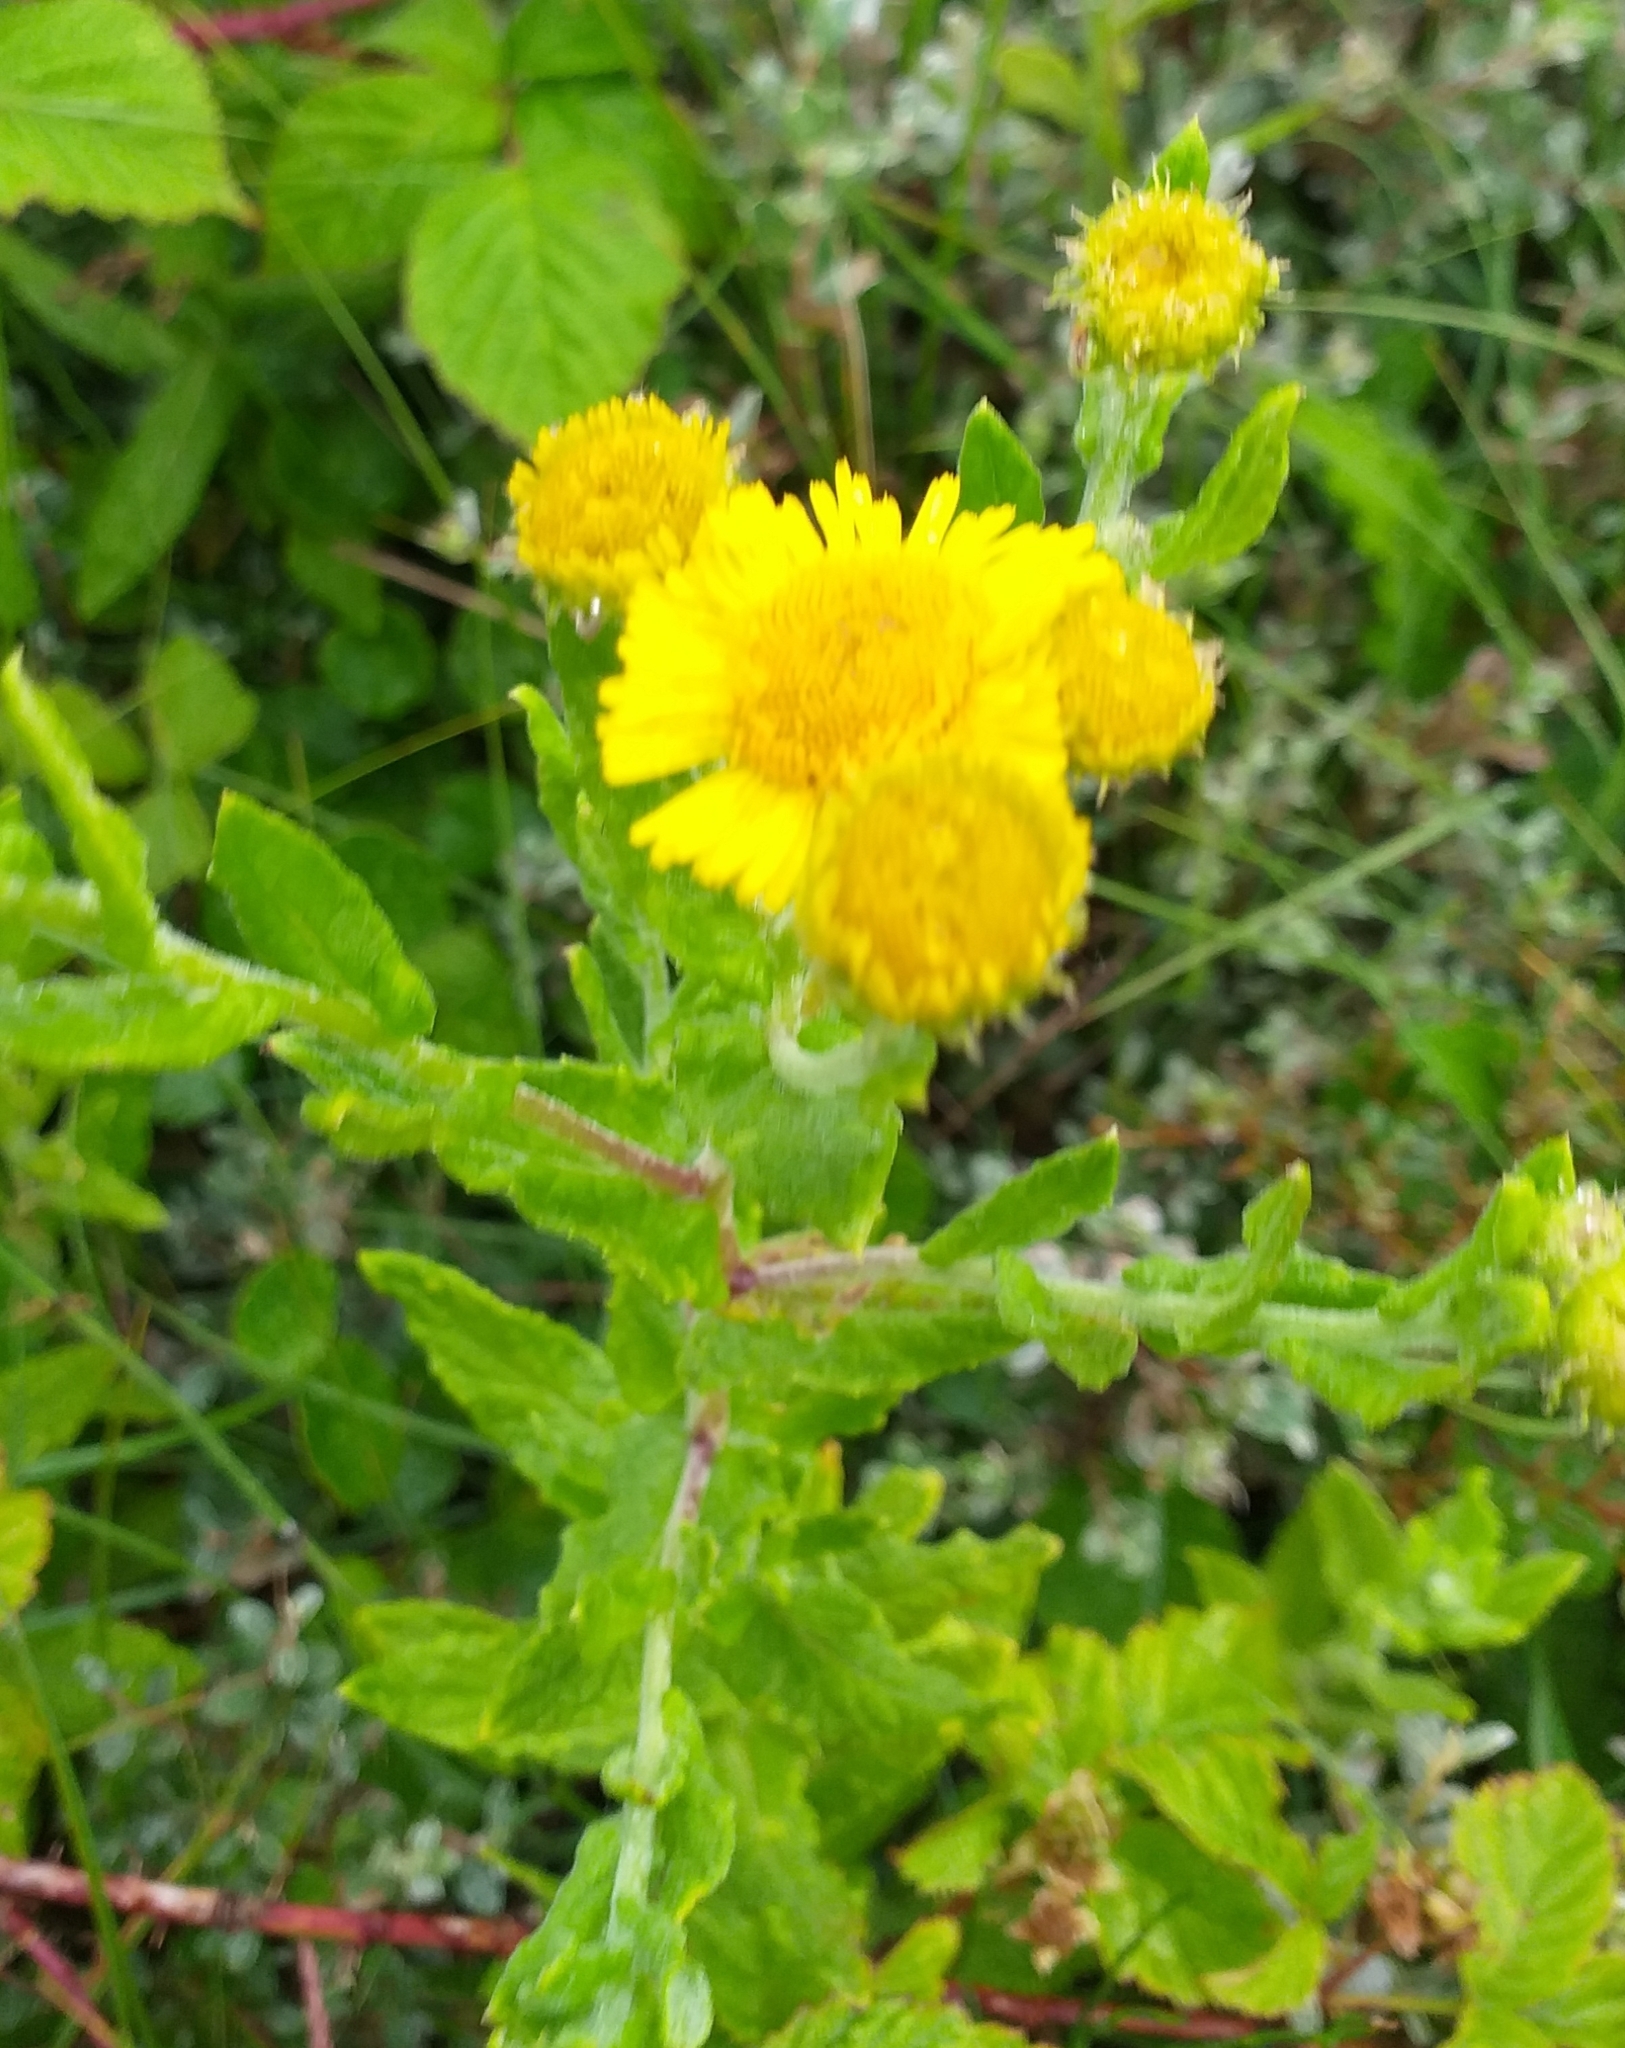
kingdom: Plantae
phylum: Tracheophyta
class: Magnoliopsida
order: Asterales
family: Asteraceae
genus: Pulicaria
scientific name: Pulicaria dysenterica
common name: Common fleabane
